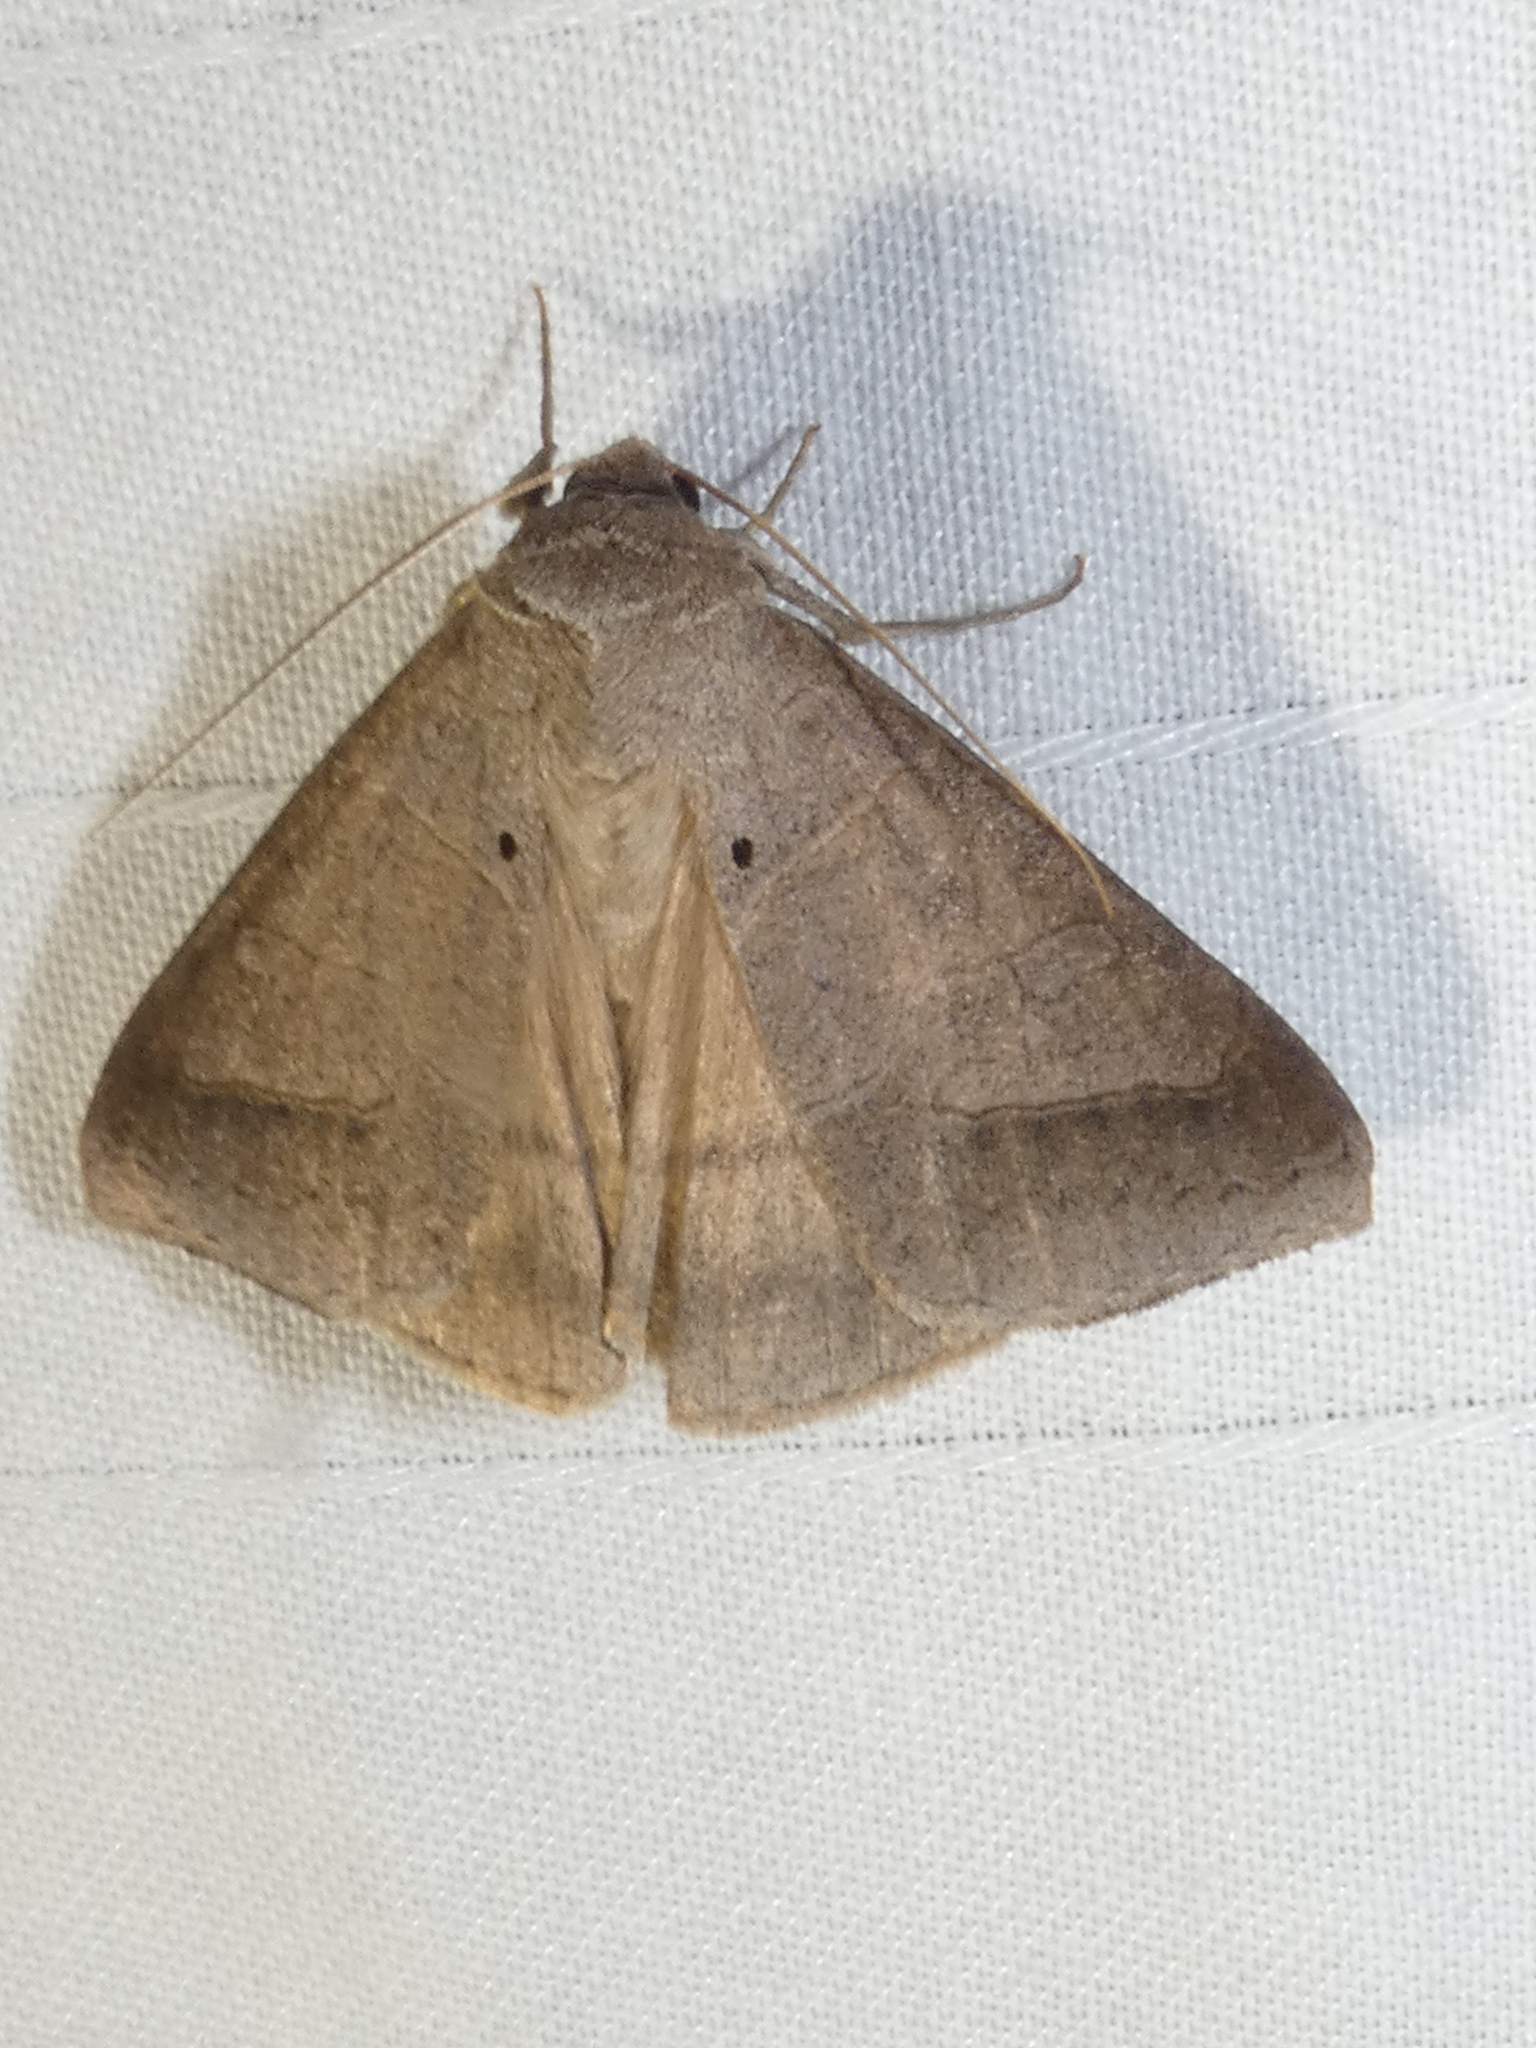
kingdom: Animalia
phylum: Arthropoda
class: Insecta
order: Lepidoptera
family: Erebidae
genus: Mocis
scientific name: Mocis marcida
